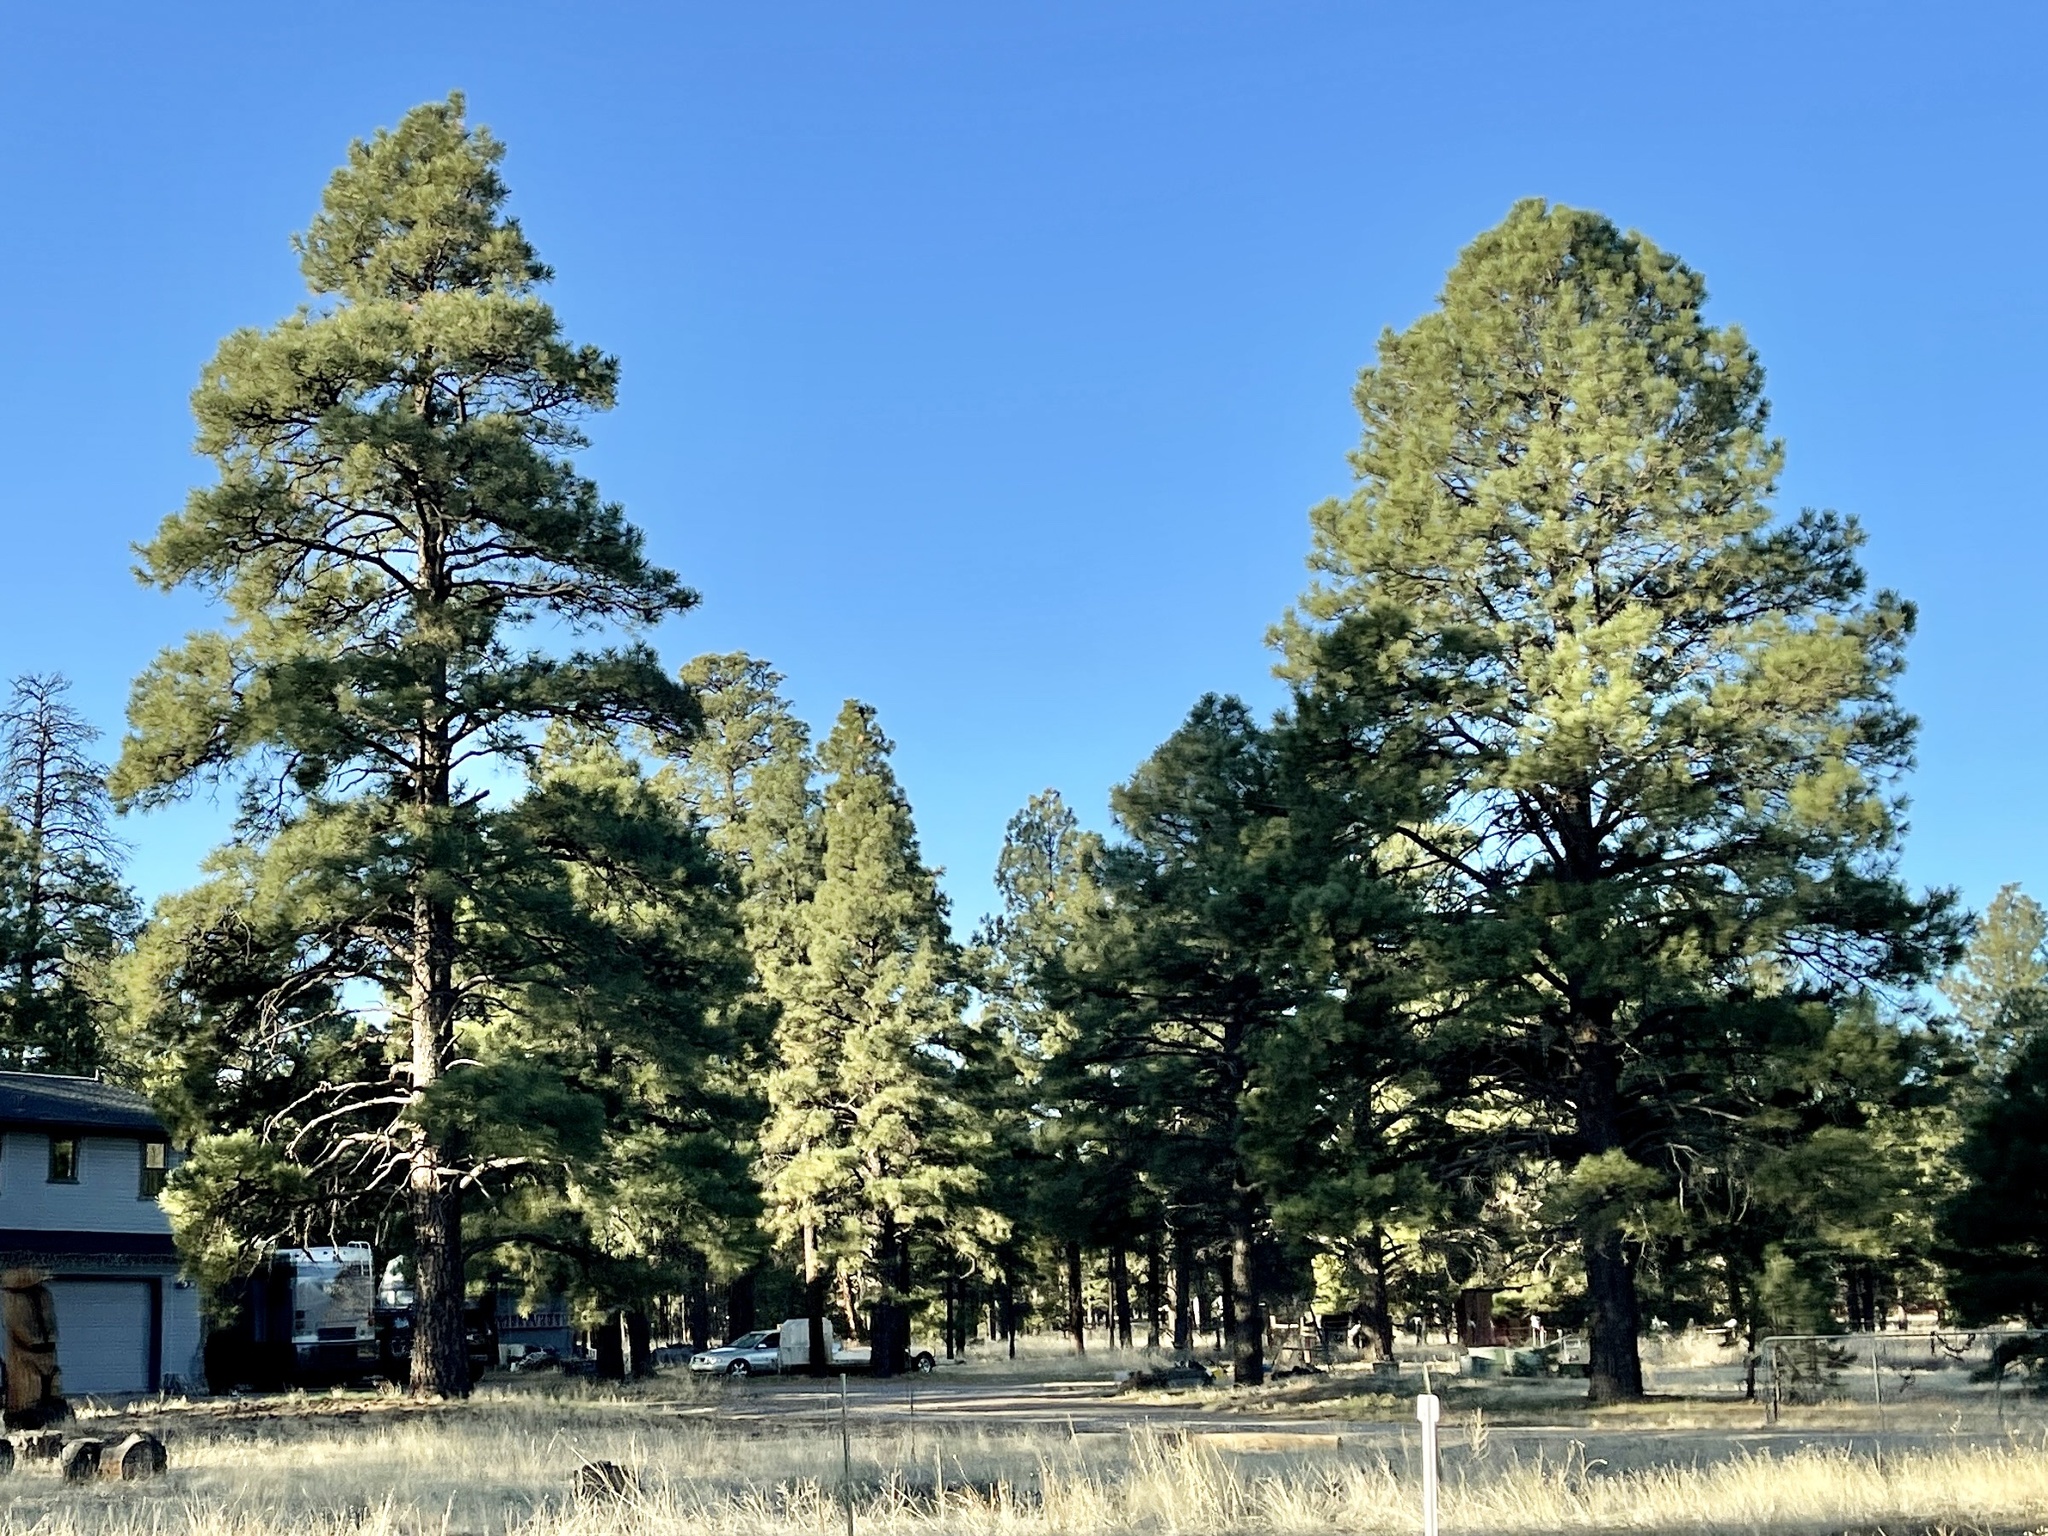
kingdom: Plantae
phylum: Tracheophyta
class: Pinopsida
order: Pinales
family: Pinaceae
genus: Pinus
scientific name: Pinus ponderosa
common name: Western yellow-pine
